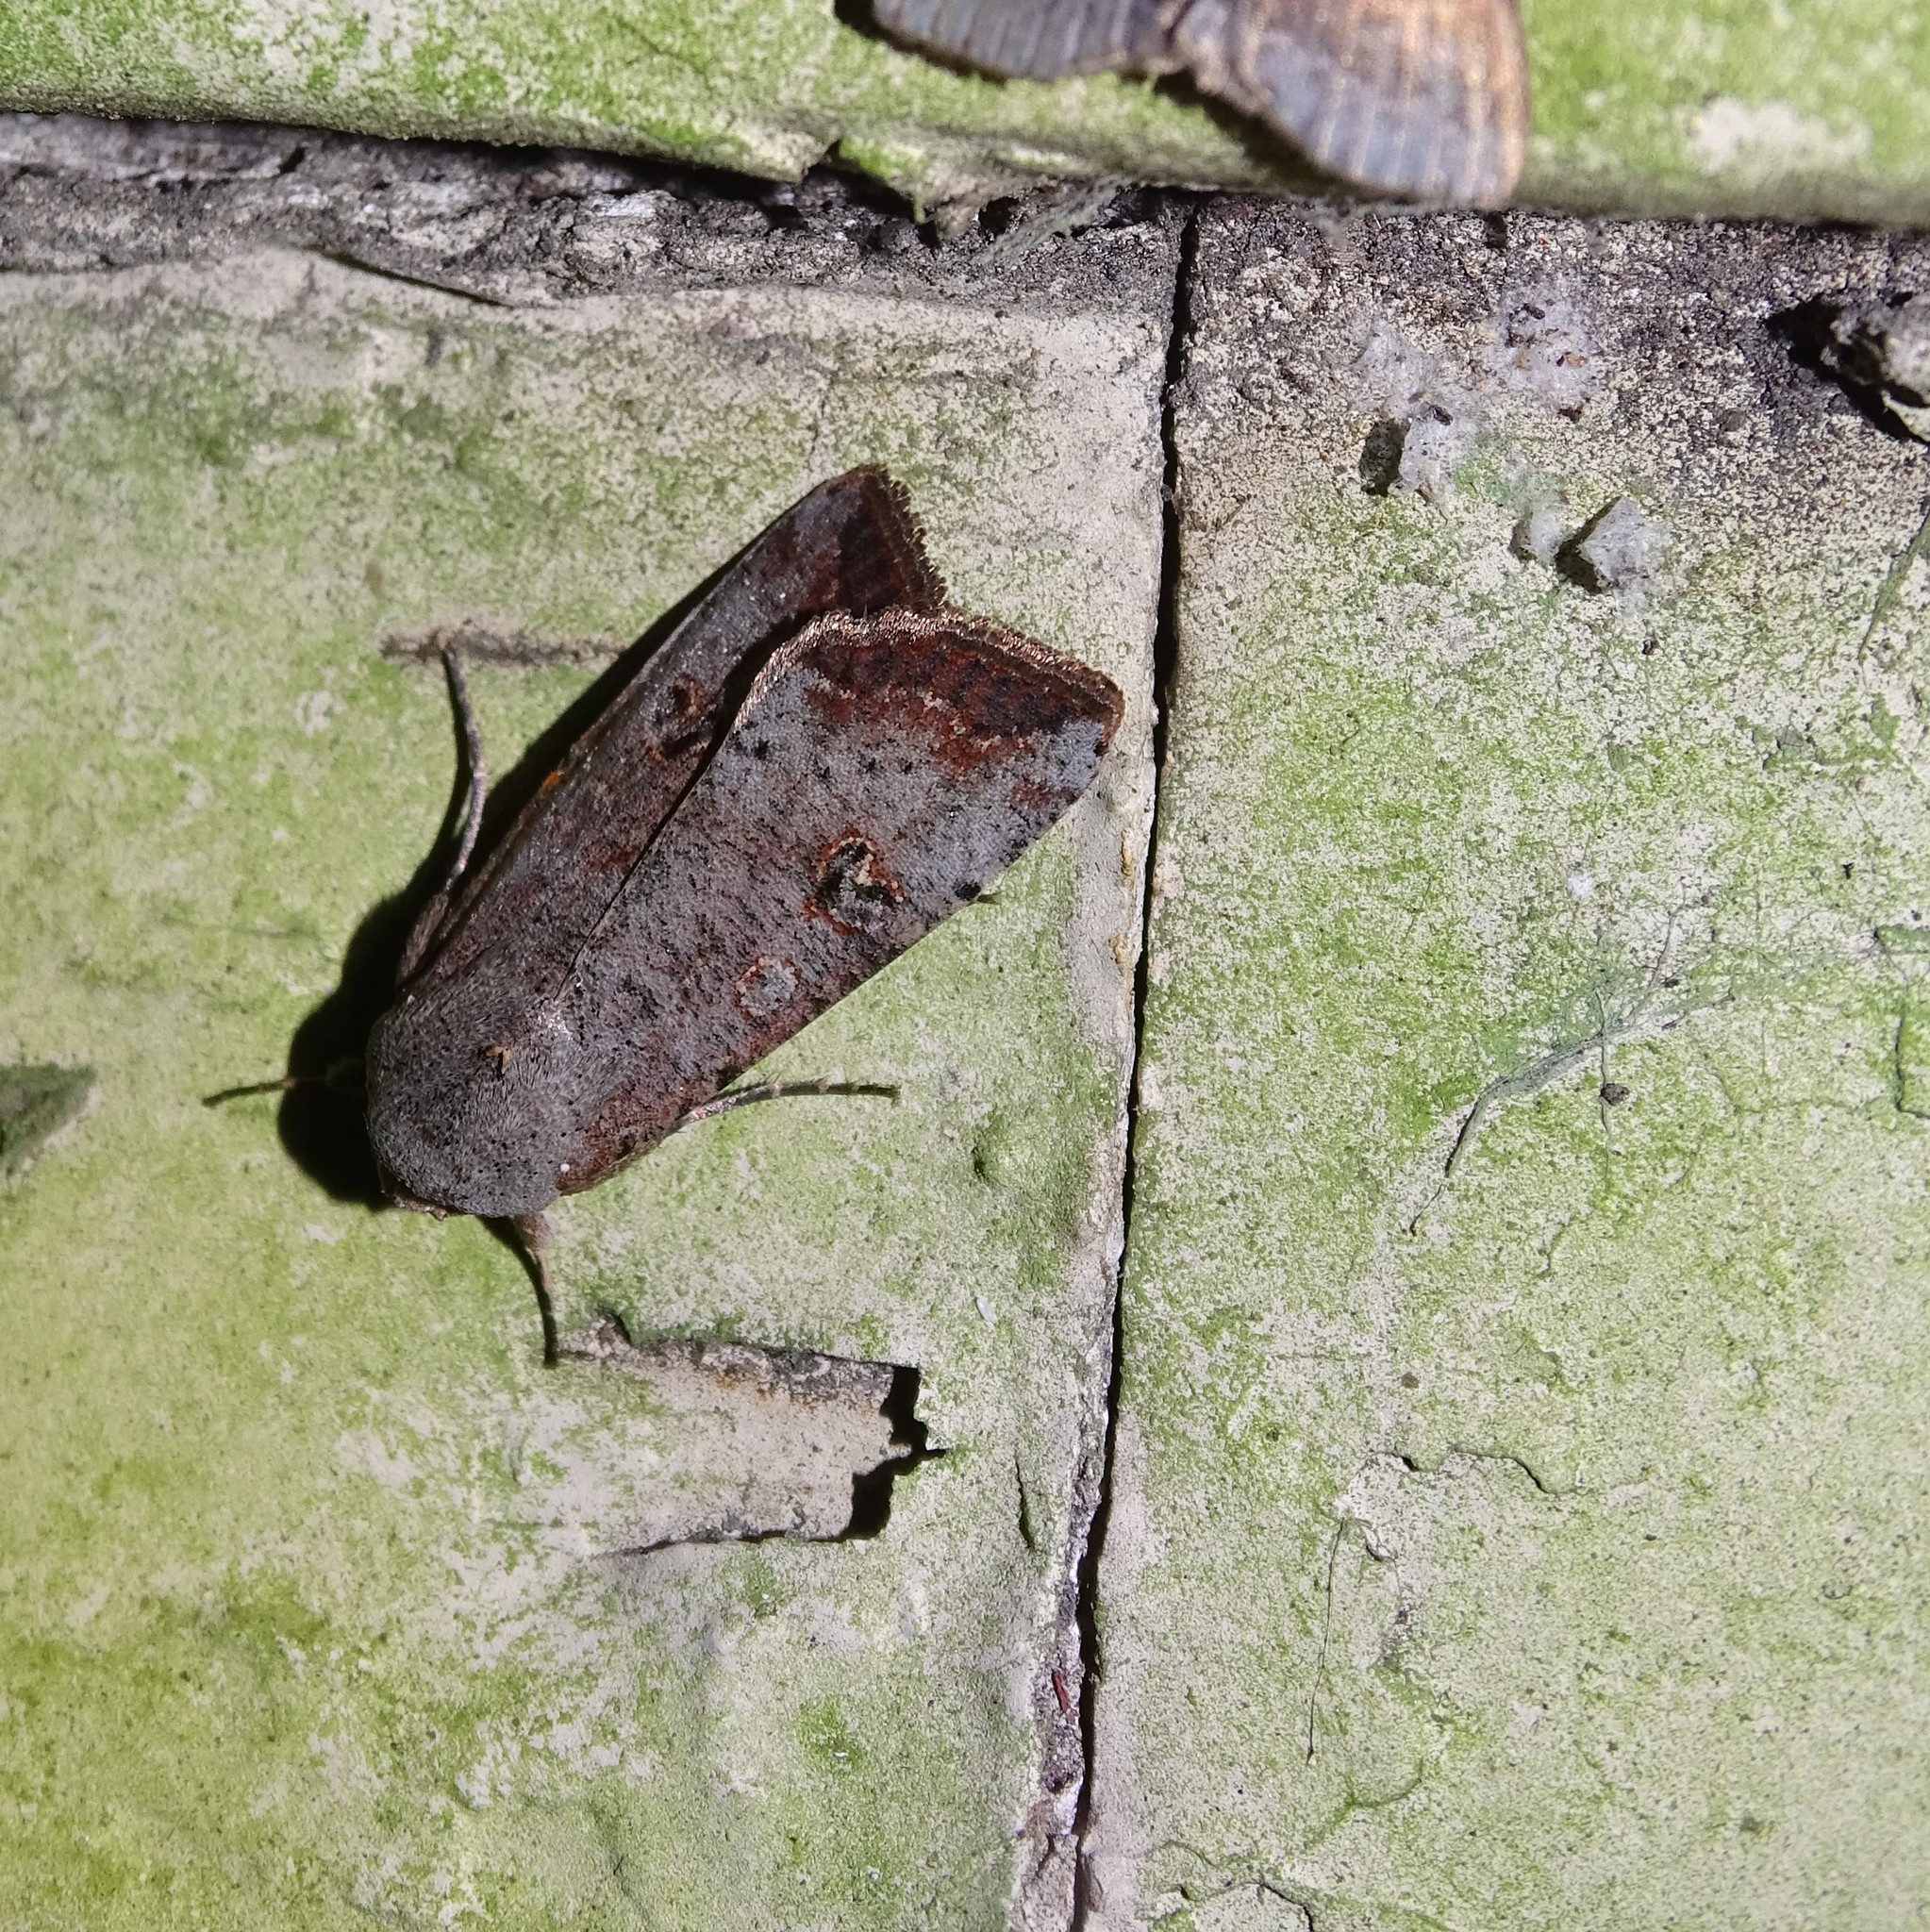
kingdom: Animalia
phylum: Arthropoda
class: Insecta
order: Lepidoptera
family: Noctuidae
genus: Anicla
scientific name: Anicla infecta
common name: Green cutworm
